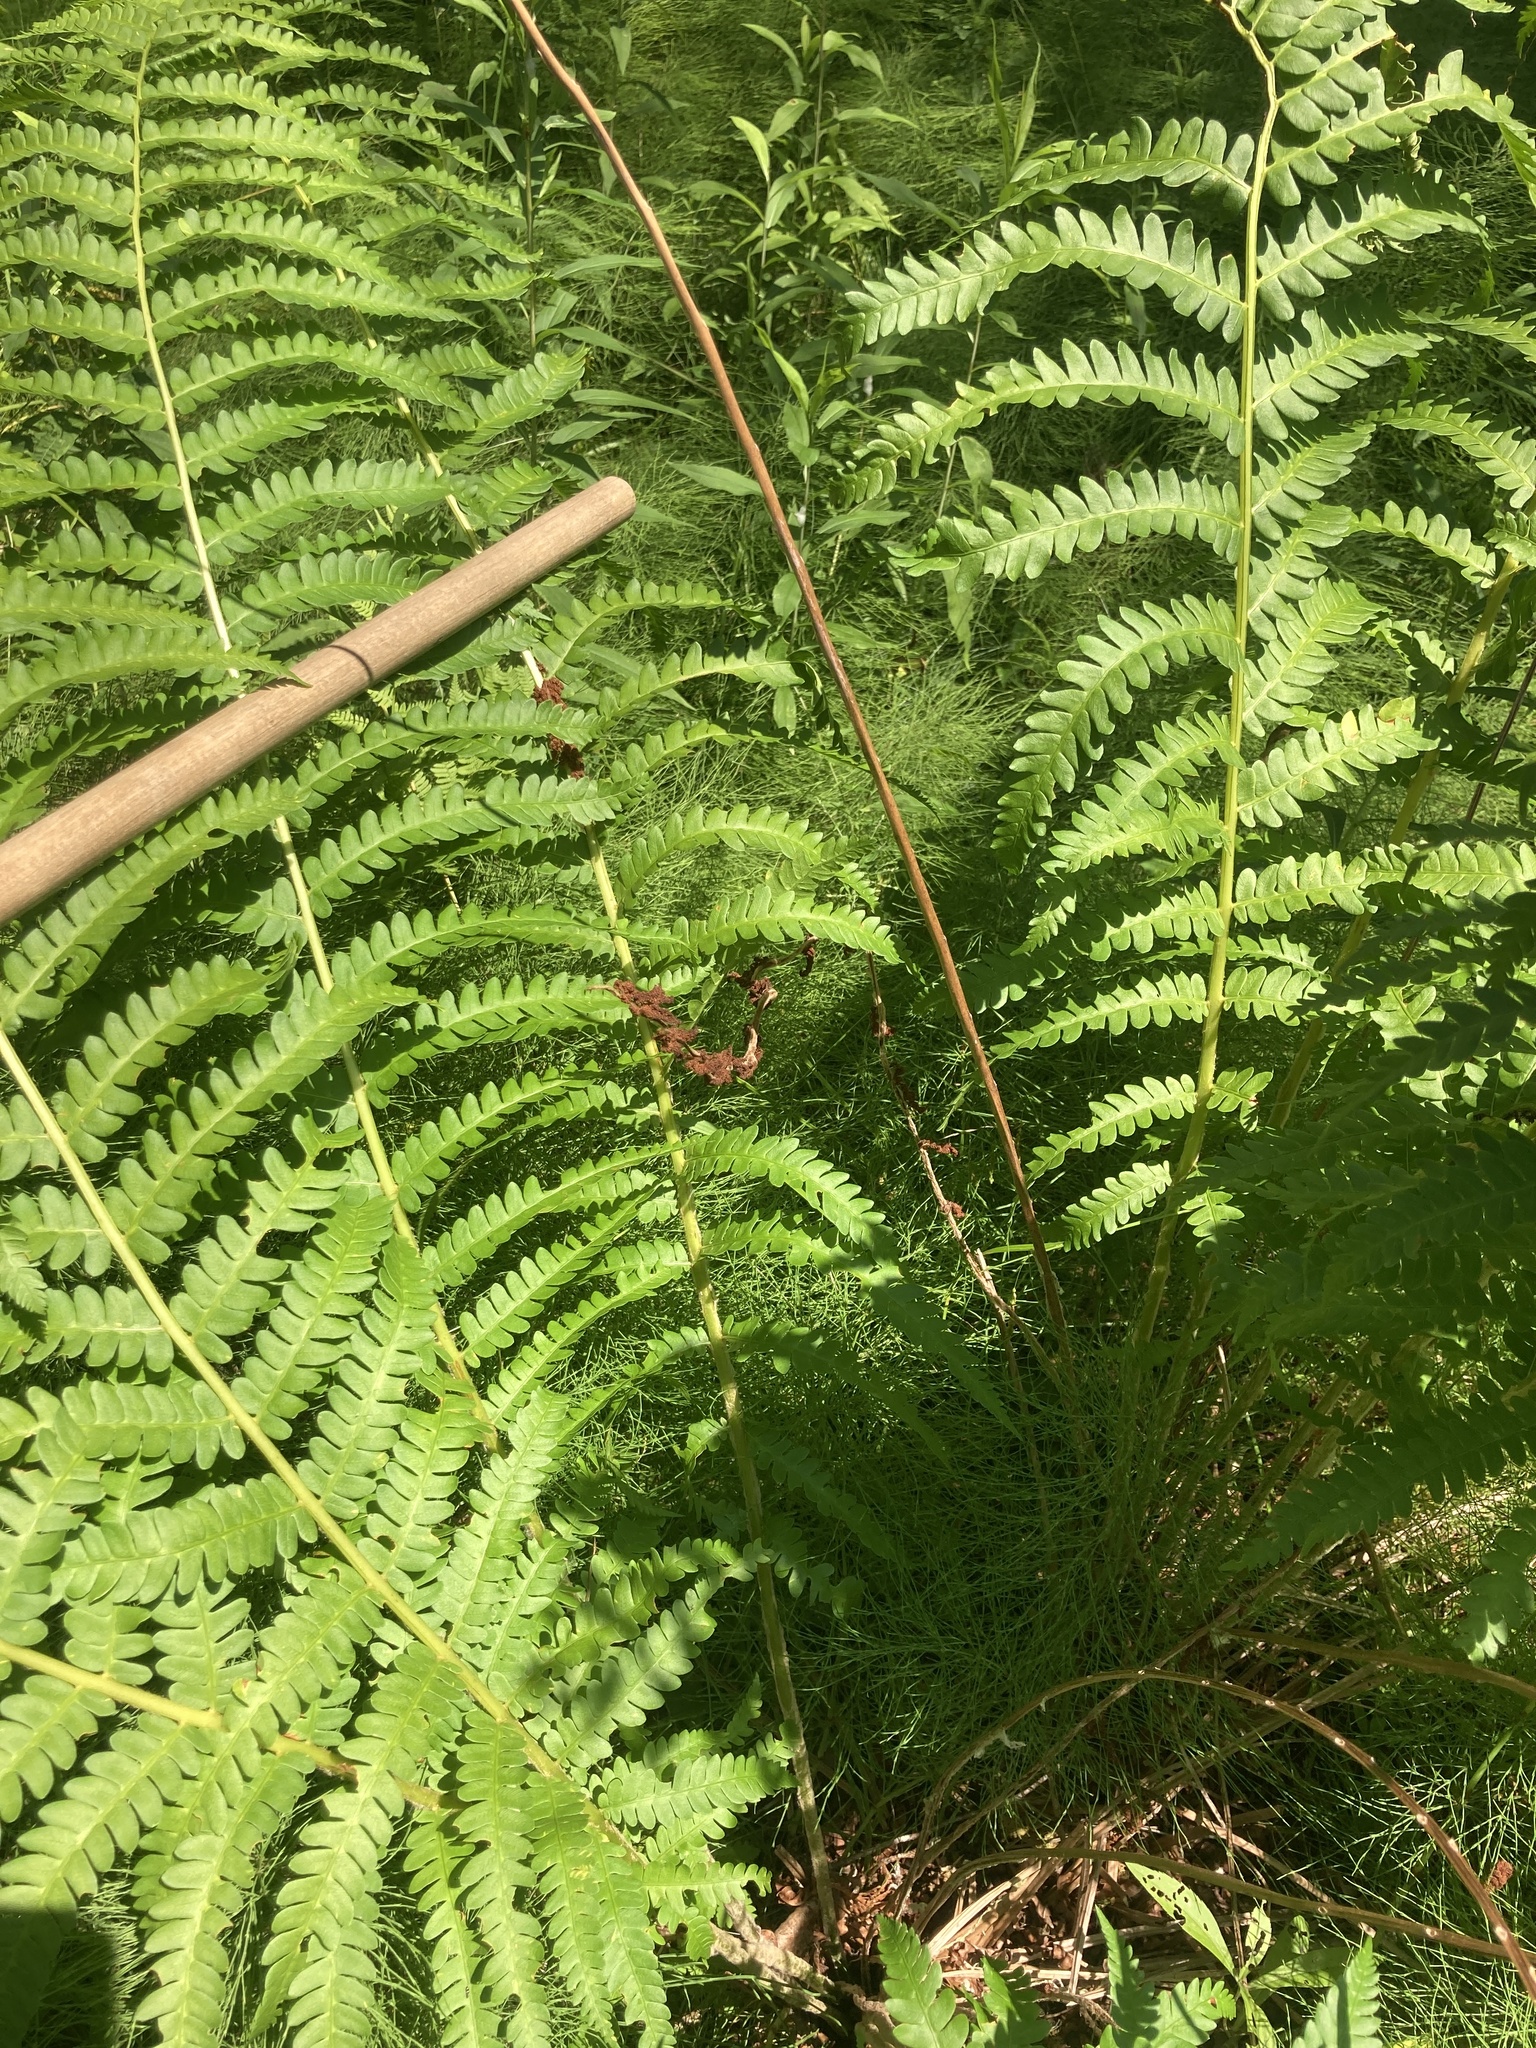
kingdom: Plantae
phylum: Tracheophyta
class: Polypodiopsida
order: Osmundales
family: Osmundaceae
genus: Osmundastrum
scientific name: Osmundastrum cinnamomeum
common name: Cinnamon fern
